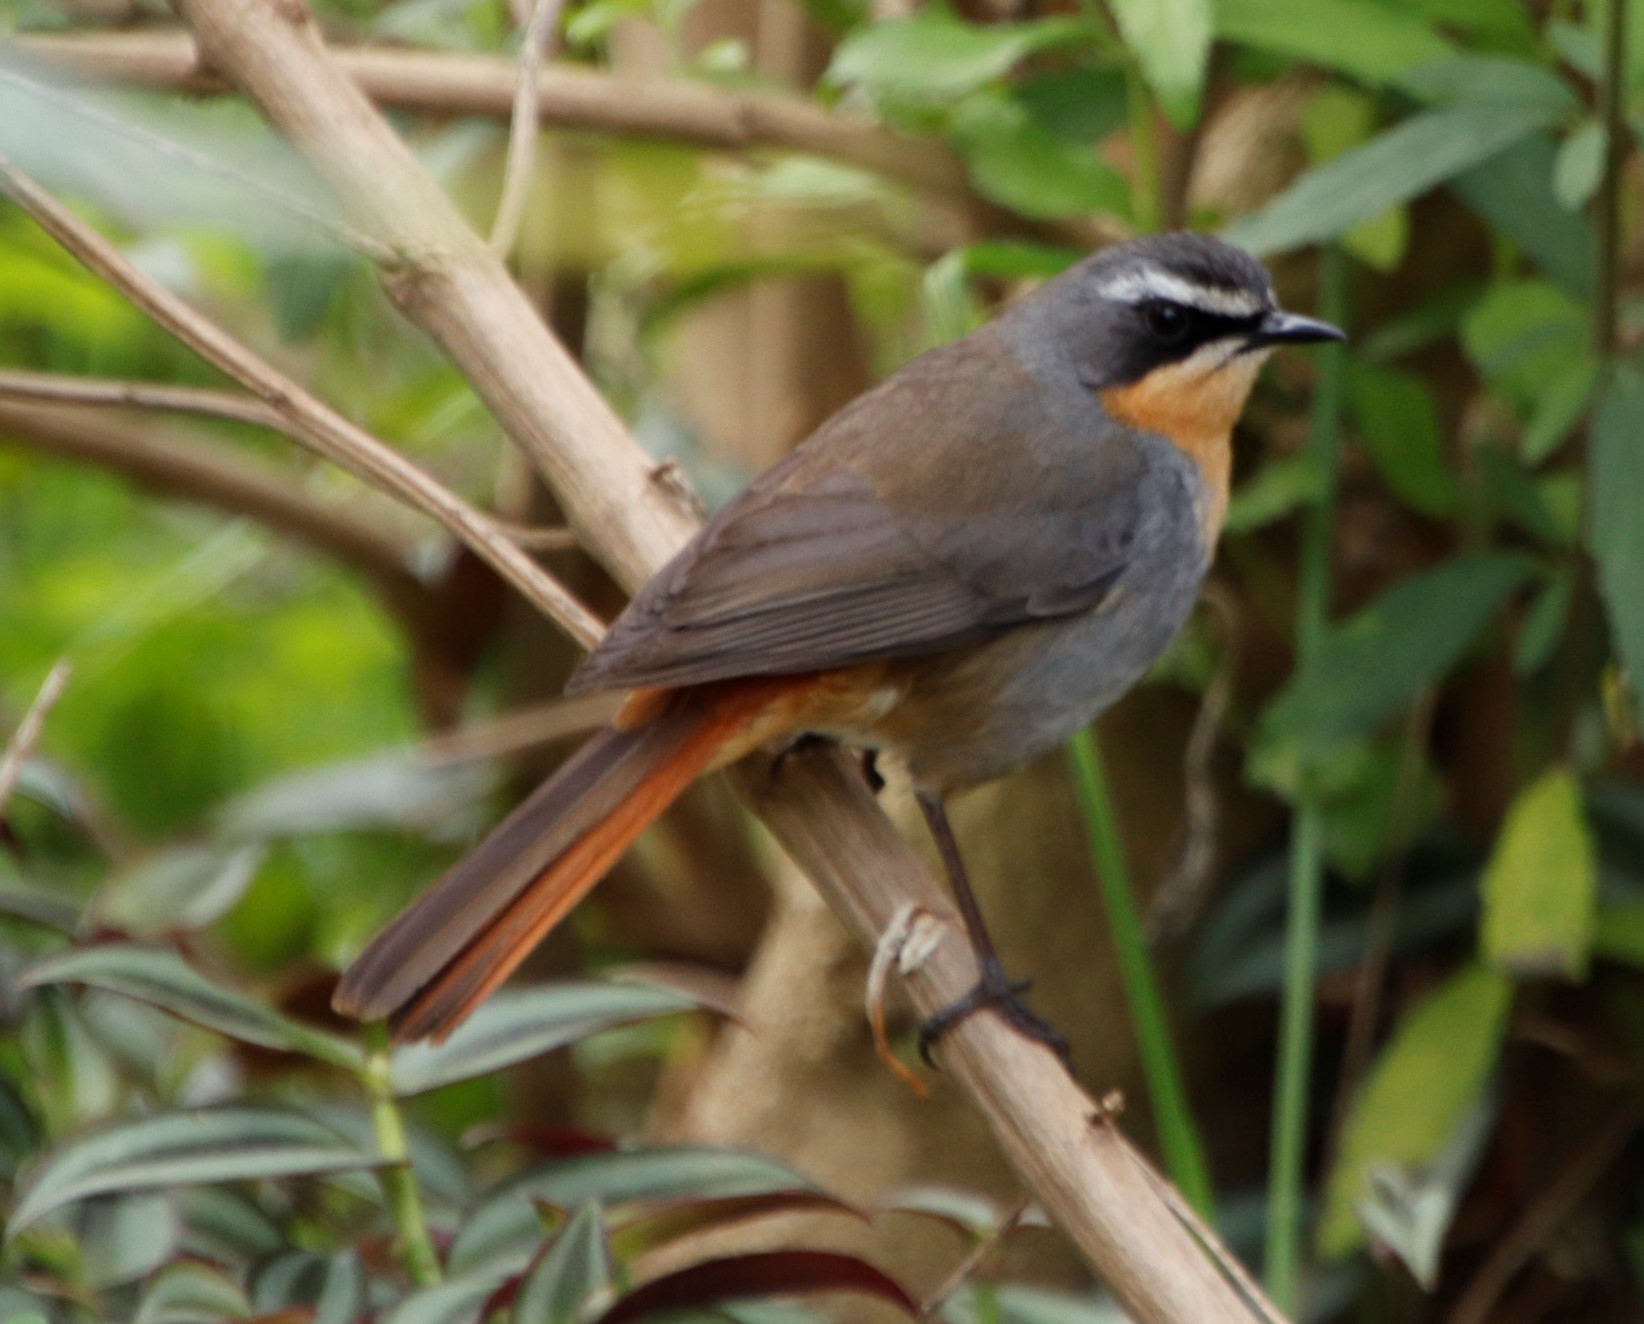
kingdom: Animalia
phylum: Chordata
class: Aves
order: Passeriformes
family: Muscicapidae
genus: Cossypha
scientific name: Cossypha caffra
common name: Cape robin-chat
